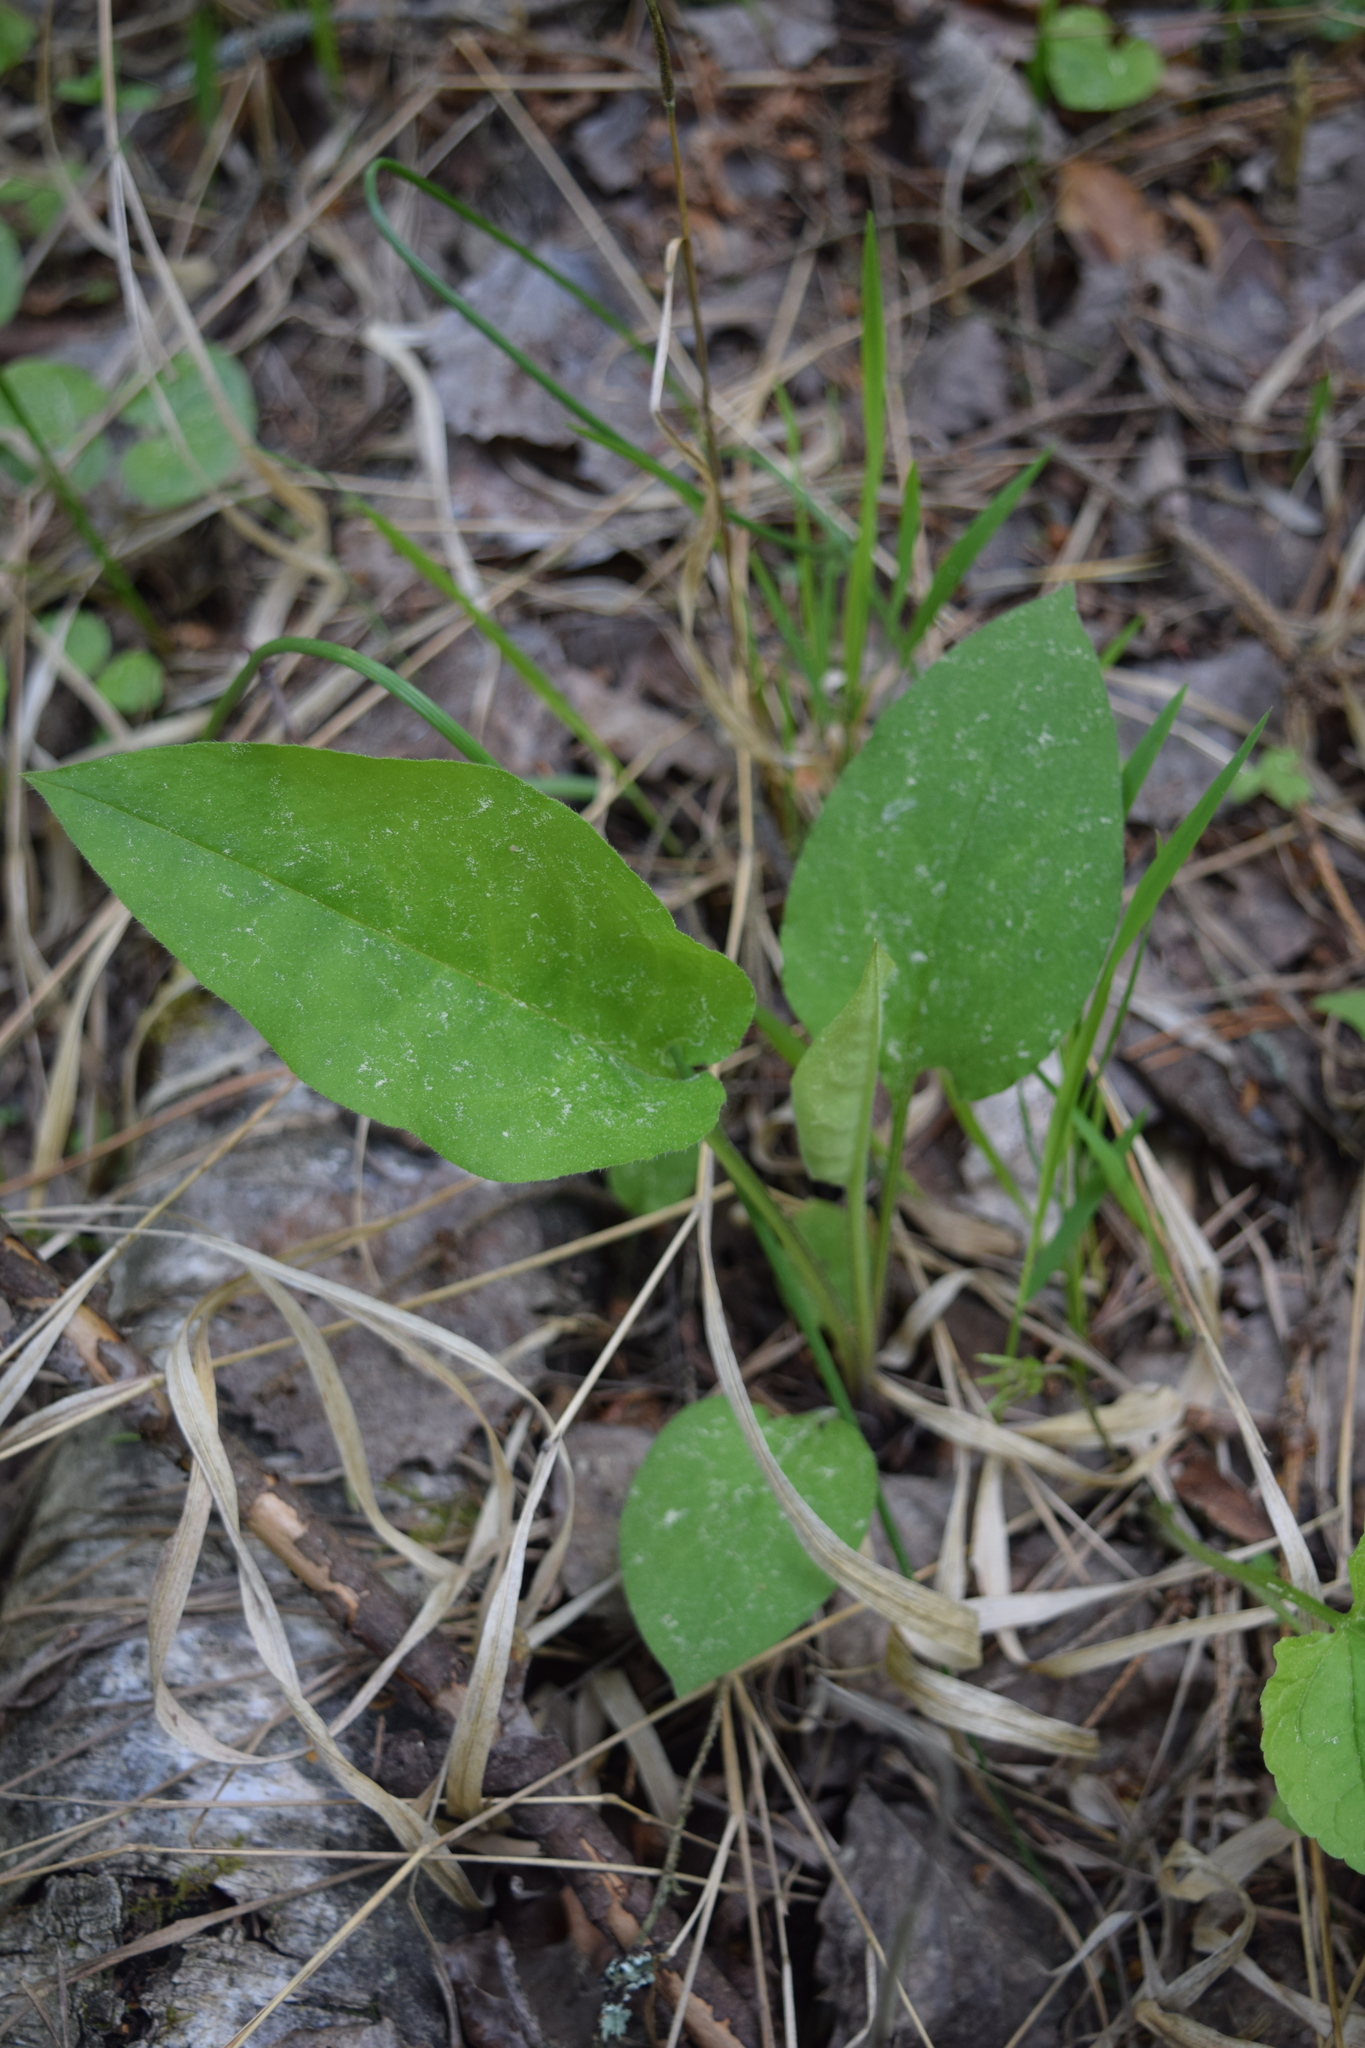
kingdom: Plantae
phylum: Tracheophyta
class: Magnoliopsida
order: Boraginales
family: Boraginaceae
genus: Pulmonaria
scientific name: Pulmonaria obscura
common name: Suffolk lungwort
